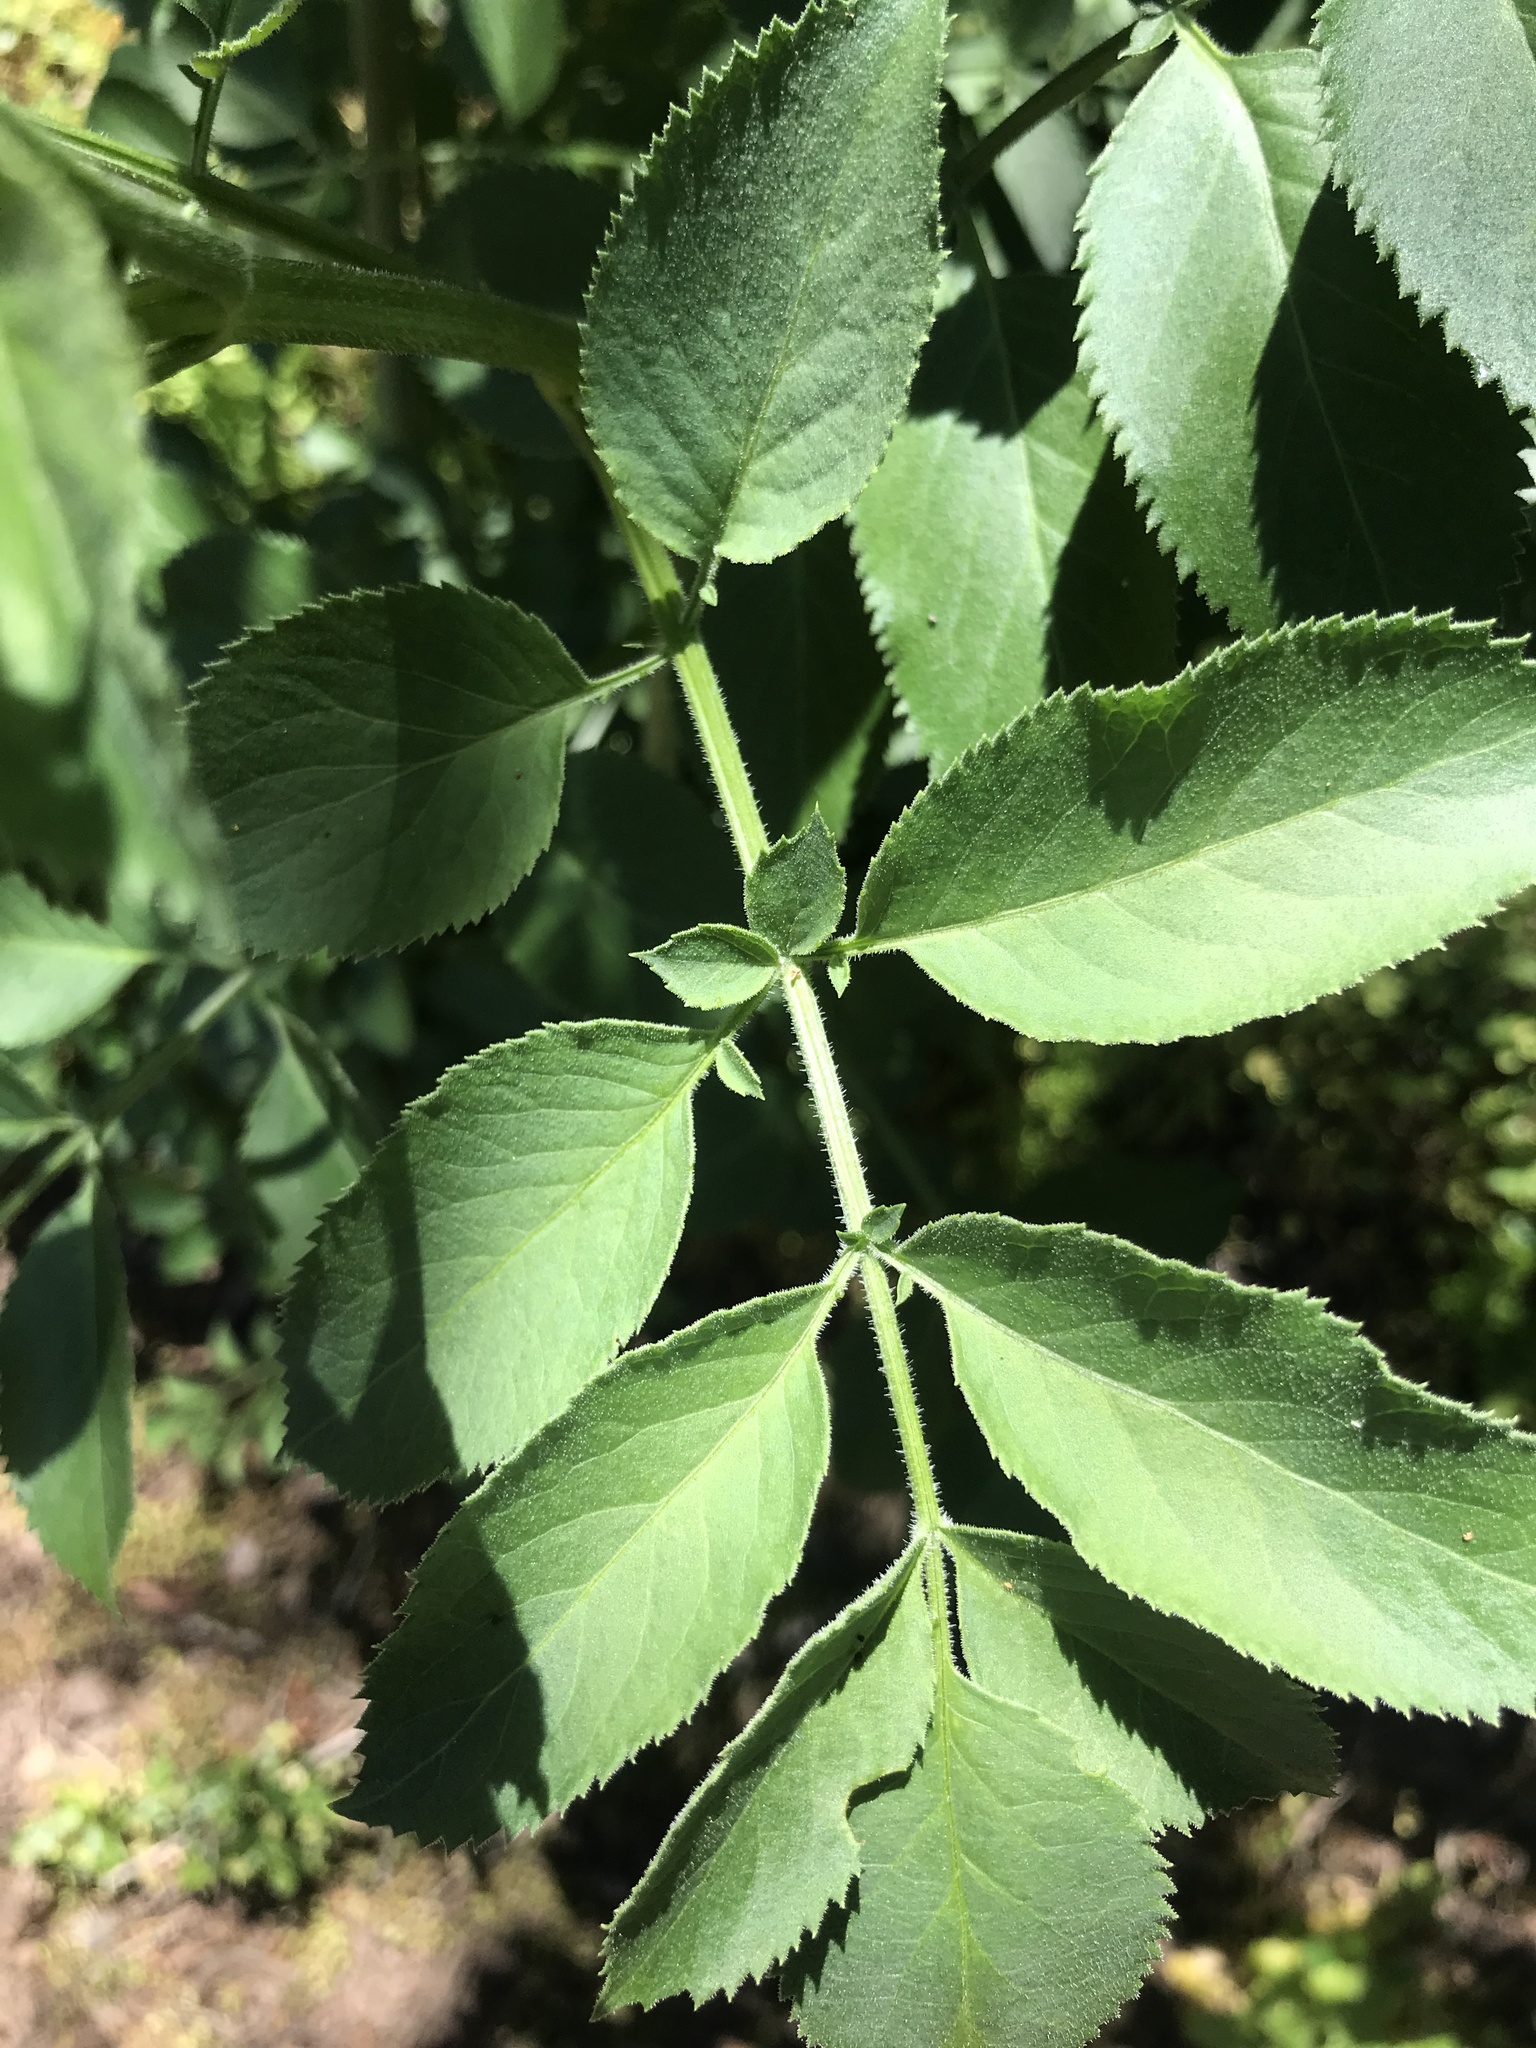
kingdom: Plantae
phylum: Tracheophyta
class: Magnoliopsida
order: Dipsacales
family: Viburnaceae
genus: Sambucus
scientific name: Sambucus cerulea
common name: Blue elder
